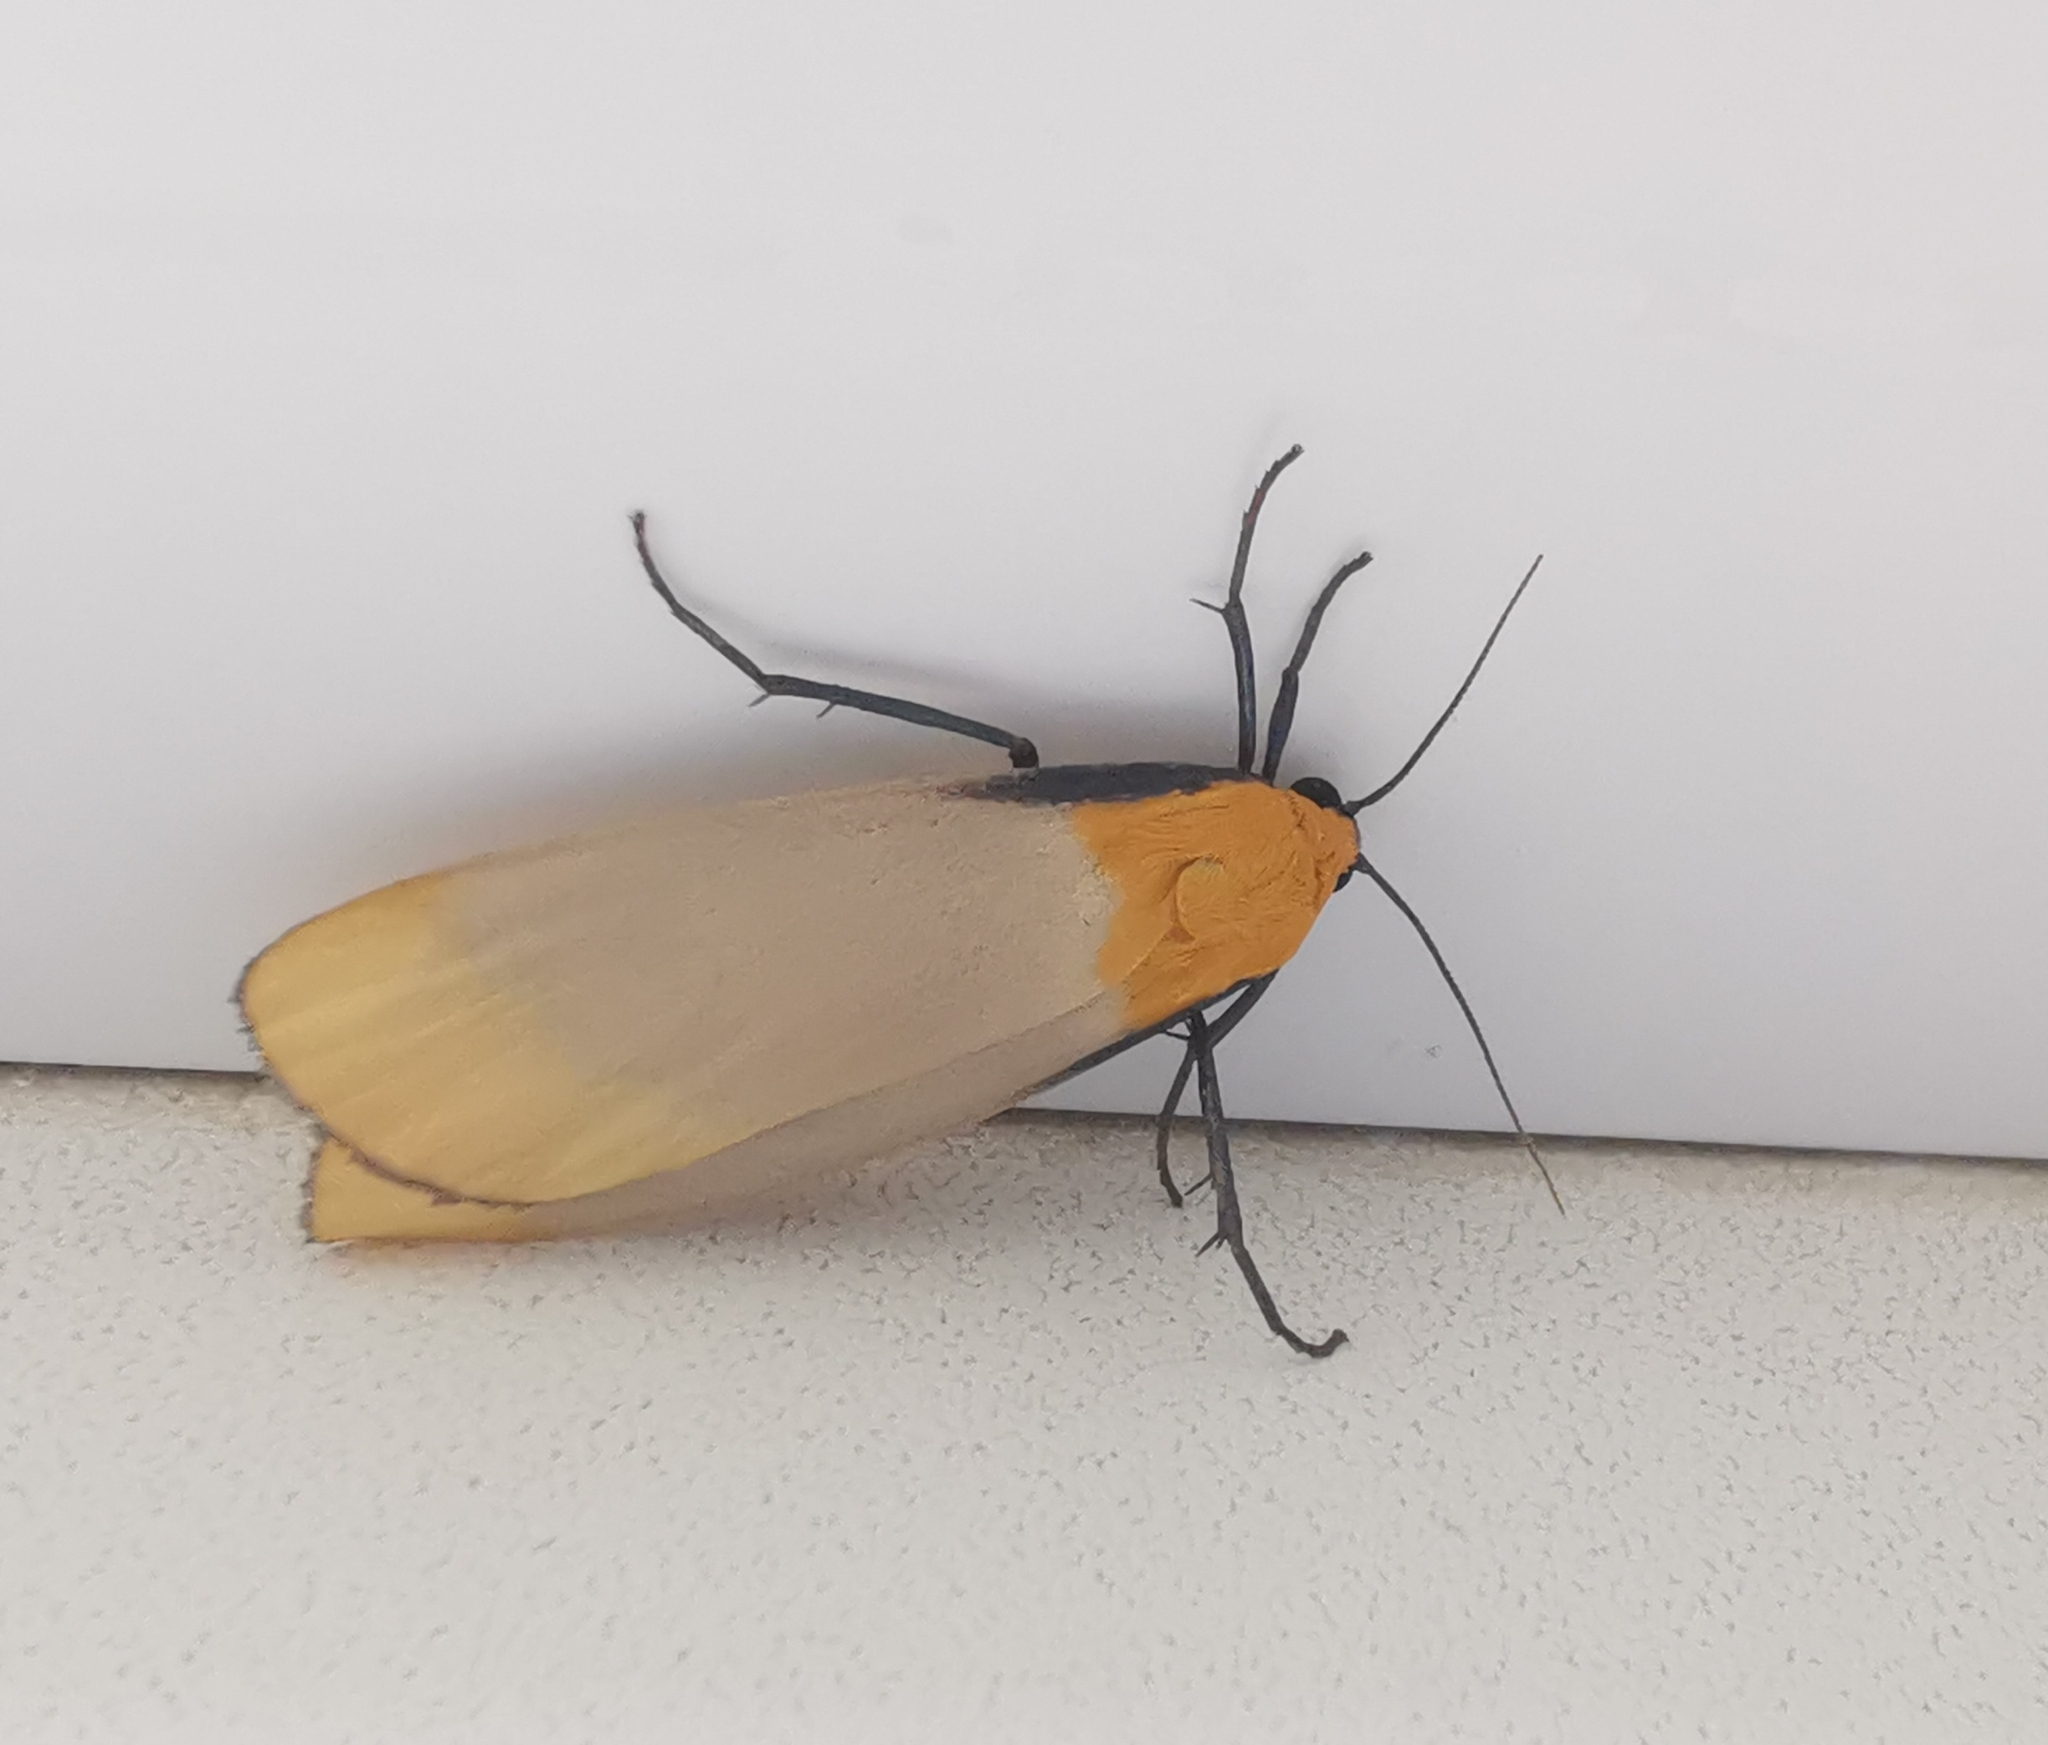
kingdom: Animalia
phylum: Arthropoda
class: Insecta
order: Lepidoptera
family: Erebidae
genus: Lithosia
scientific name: Lithosia quadra
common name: Four-spotted footman
